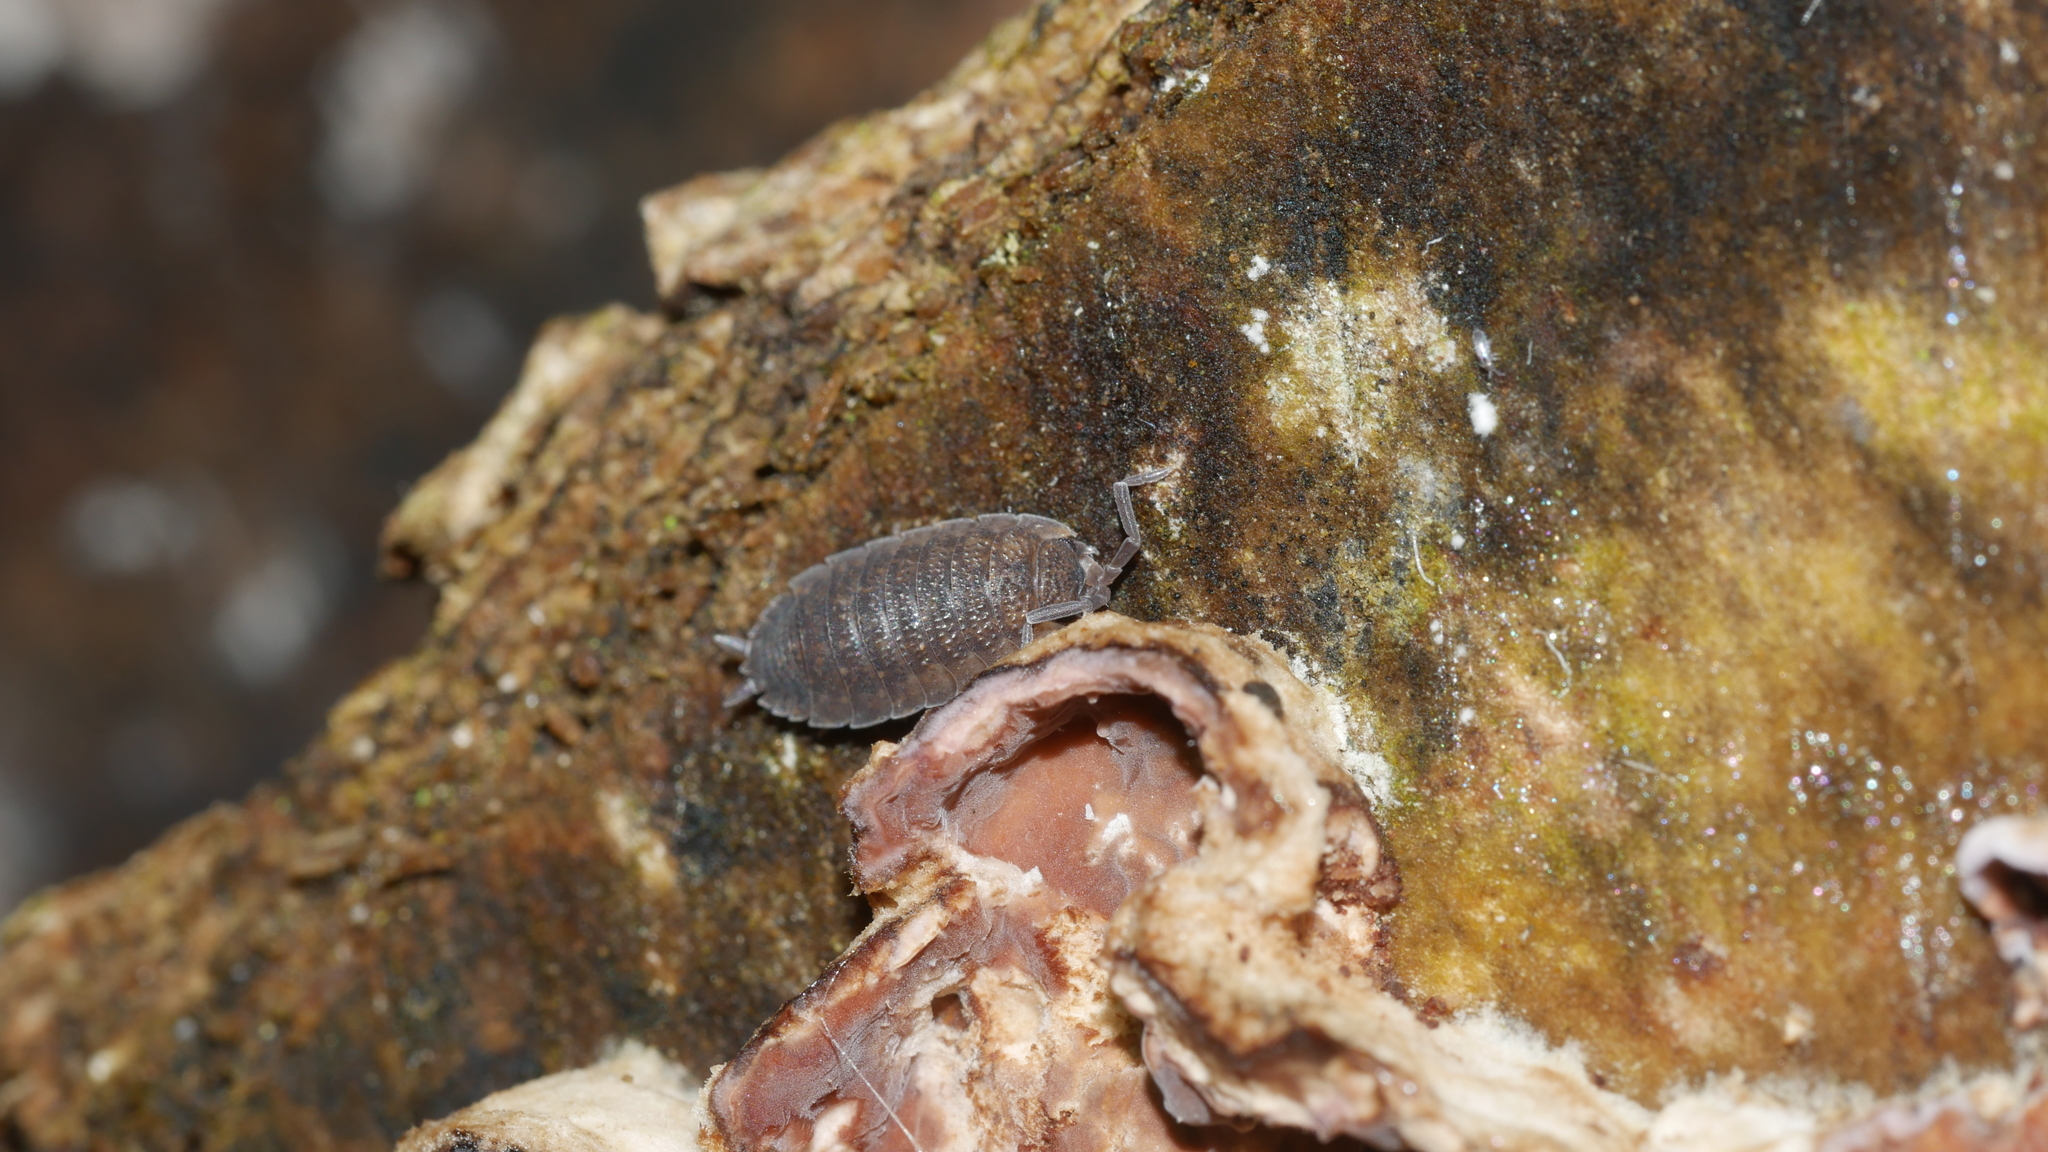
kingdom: Animalia
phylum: Arthropoda
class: Malacostraca
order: Isopoda
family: Porcellionidae
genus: Porcellio
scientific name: Porcellio scaber
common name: Common rough woodlouse
